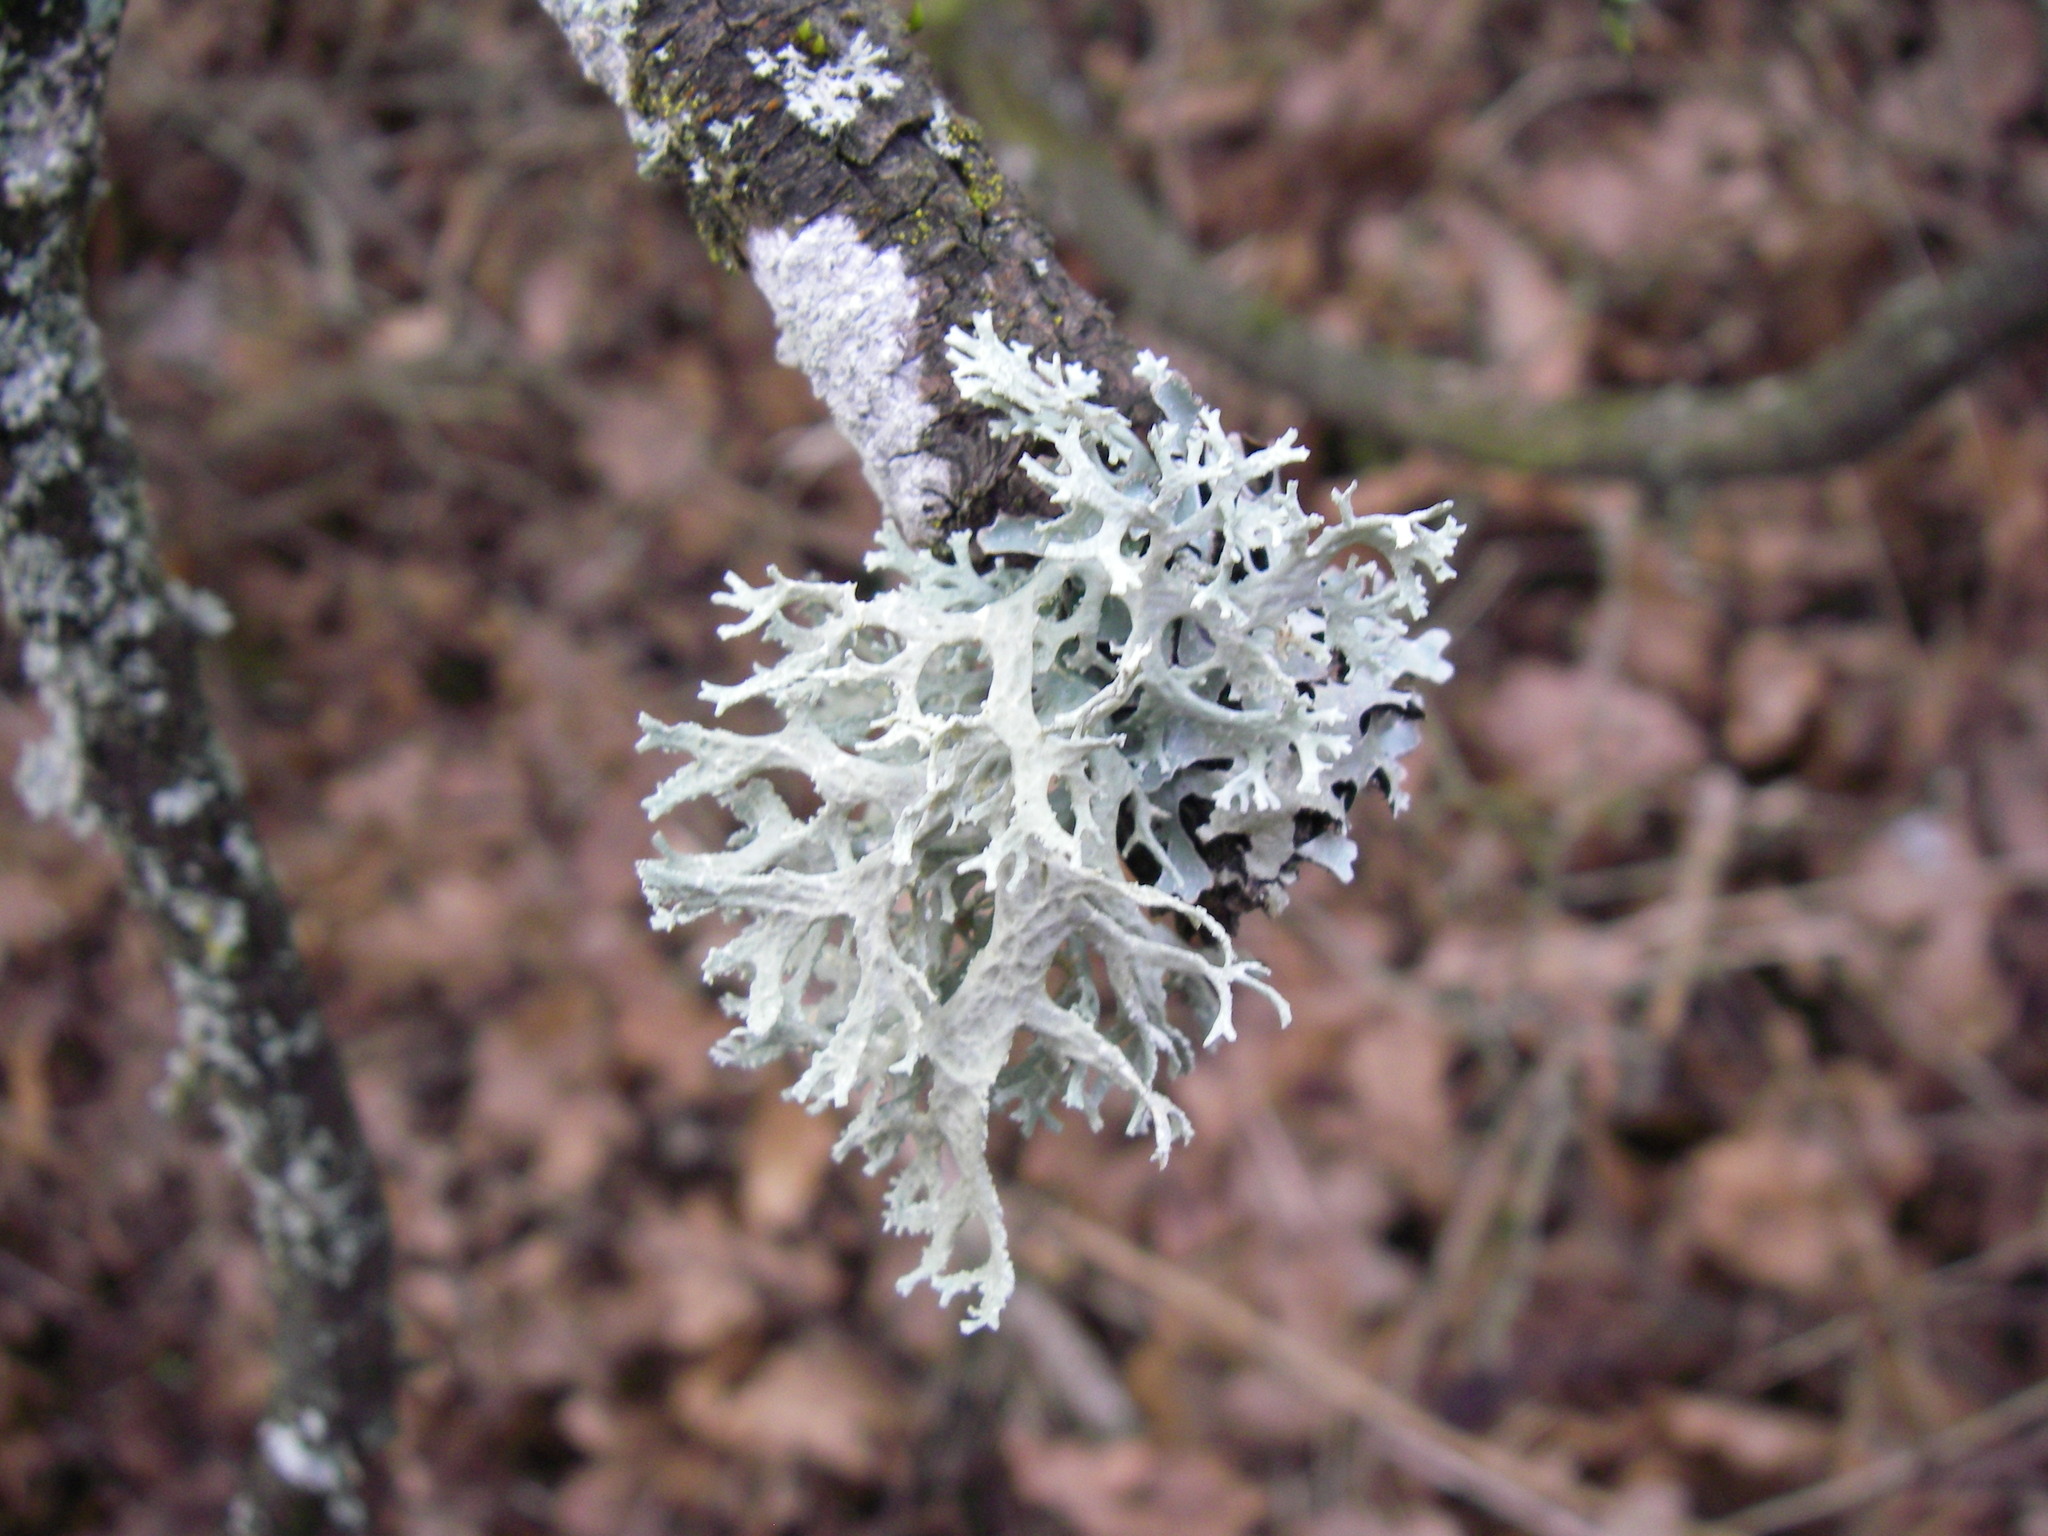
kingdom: Fungi
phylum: Ascomycota
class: Lecanoromycetes
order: Lecanorales
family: Parmeliaceae
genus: Evernia
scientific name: Evernia prunastri
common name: Oak moss
